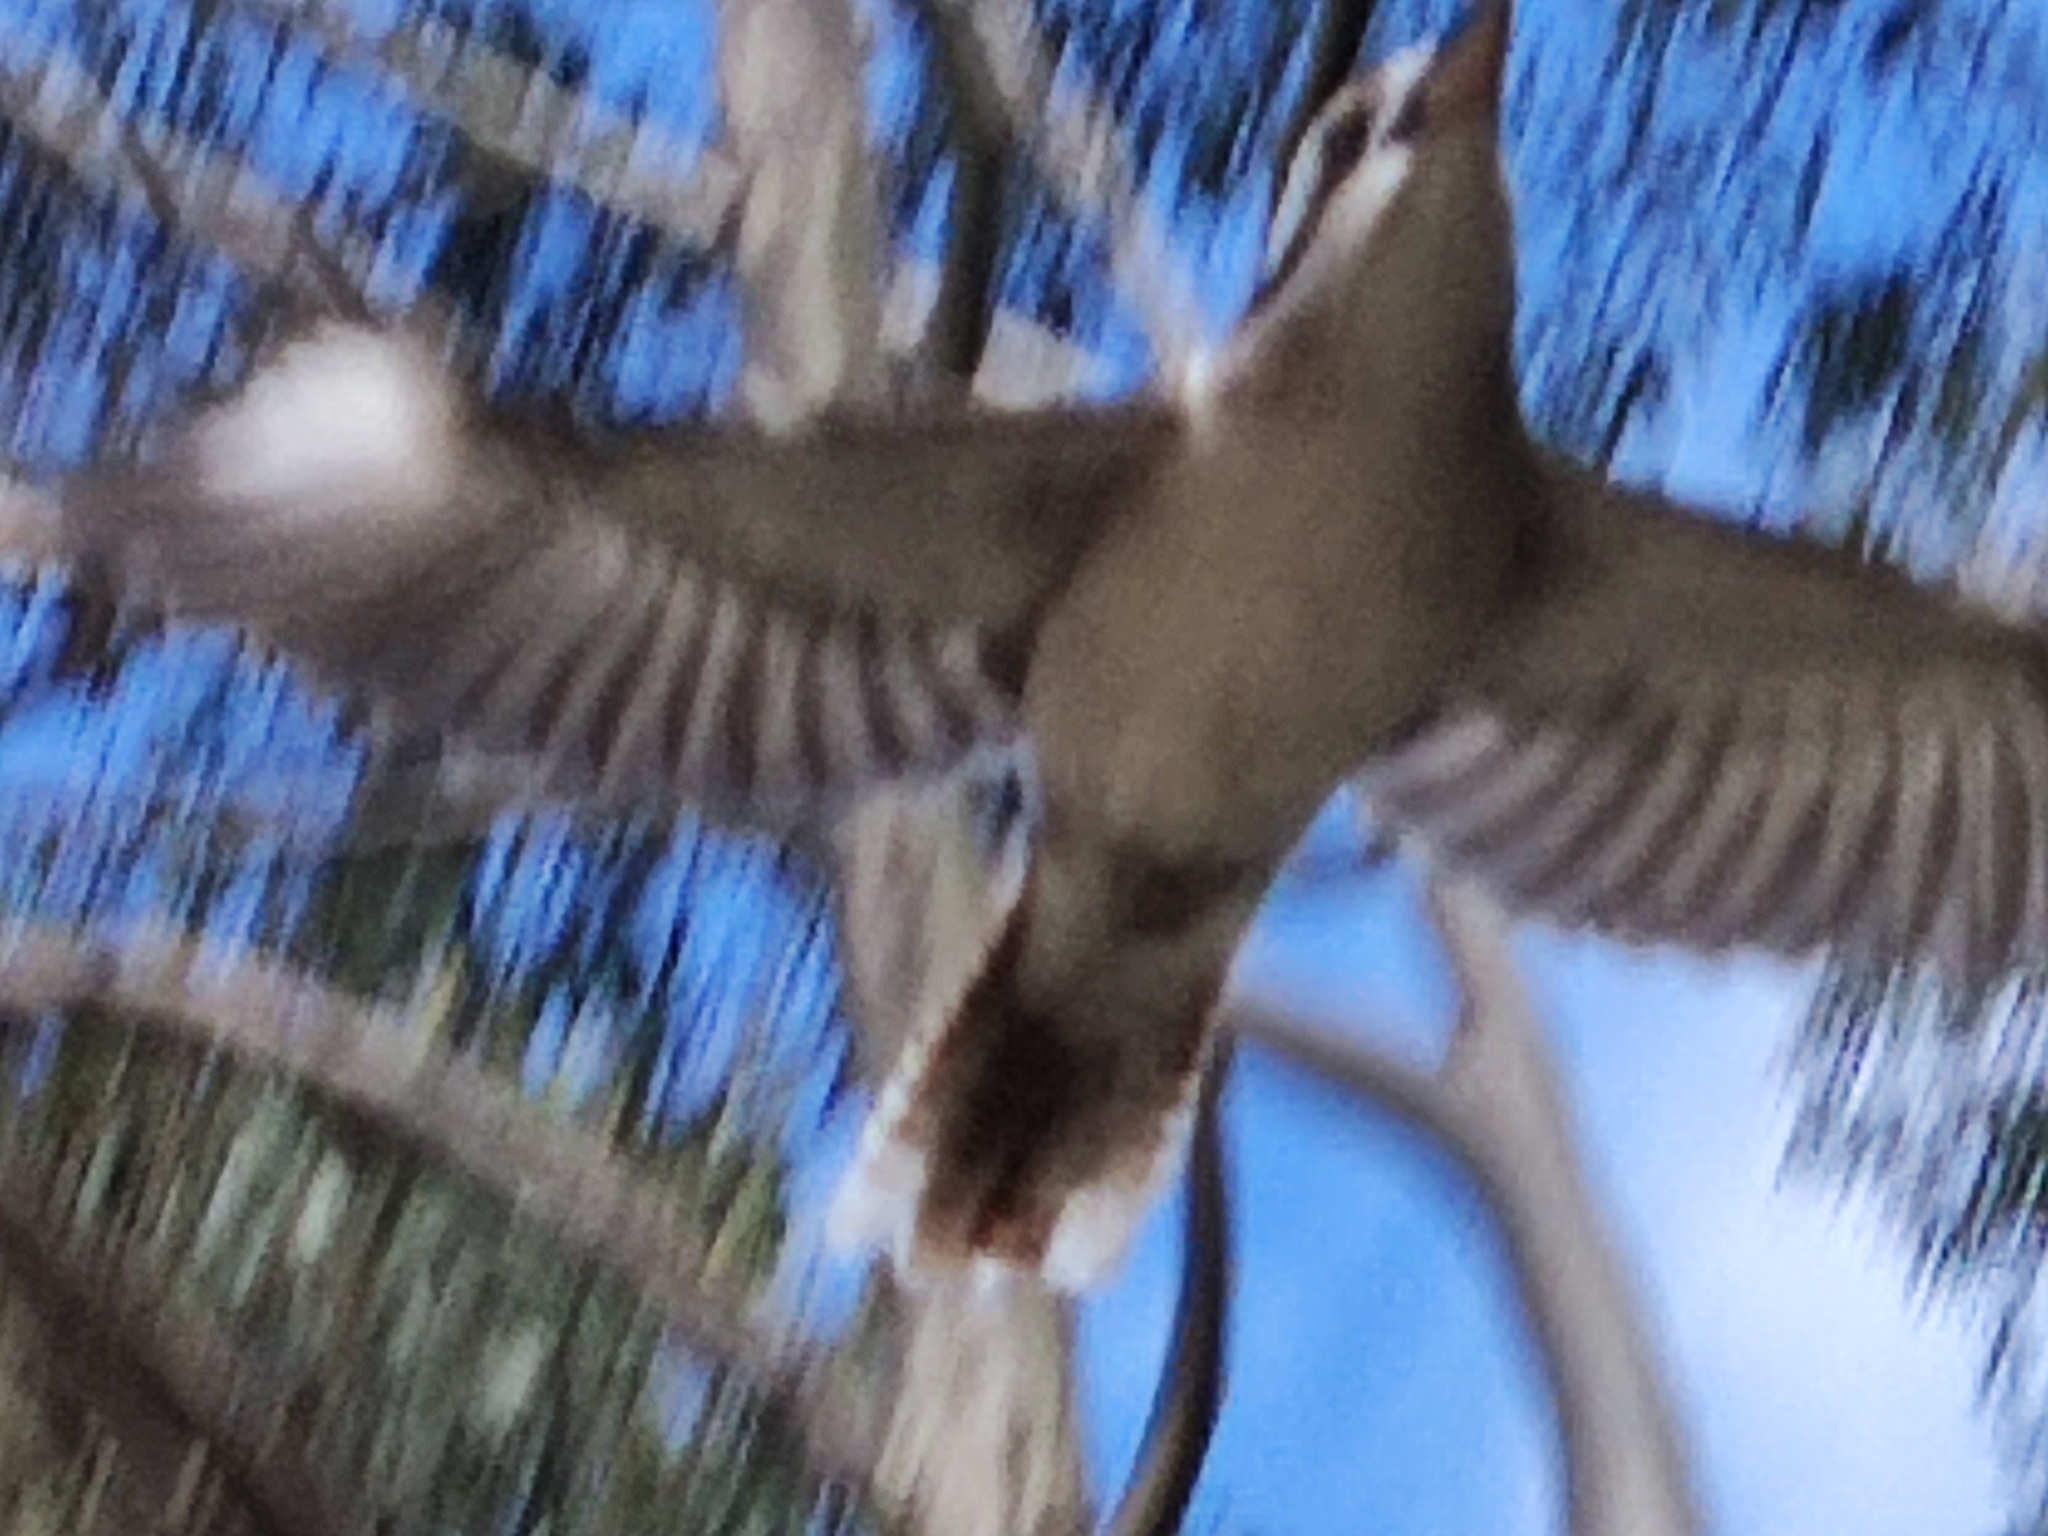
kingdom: Animalia
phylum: Chordata
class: Aves
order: Coraciiformes
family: Alcedinidae
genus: Dacelo
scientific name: Dacelo novaeguineae
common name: Laughing kookaburra
